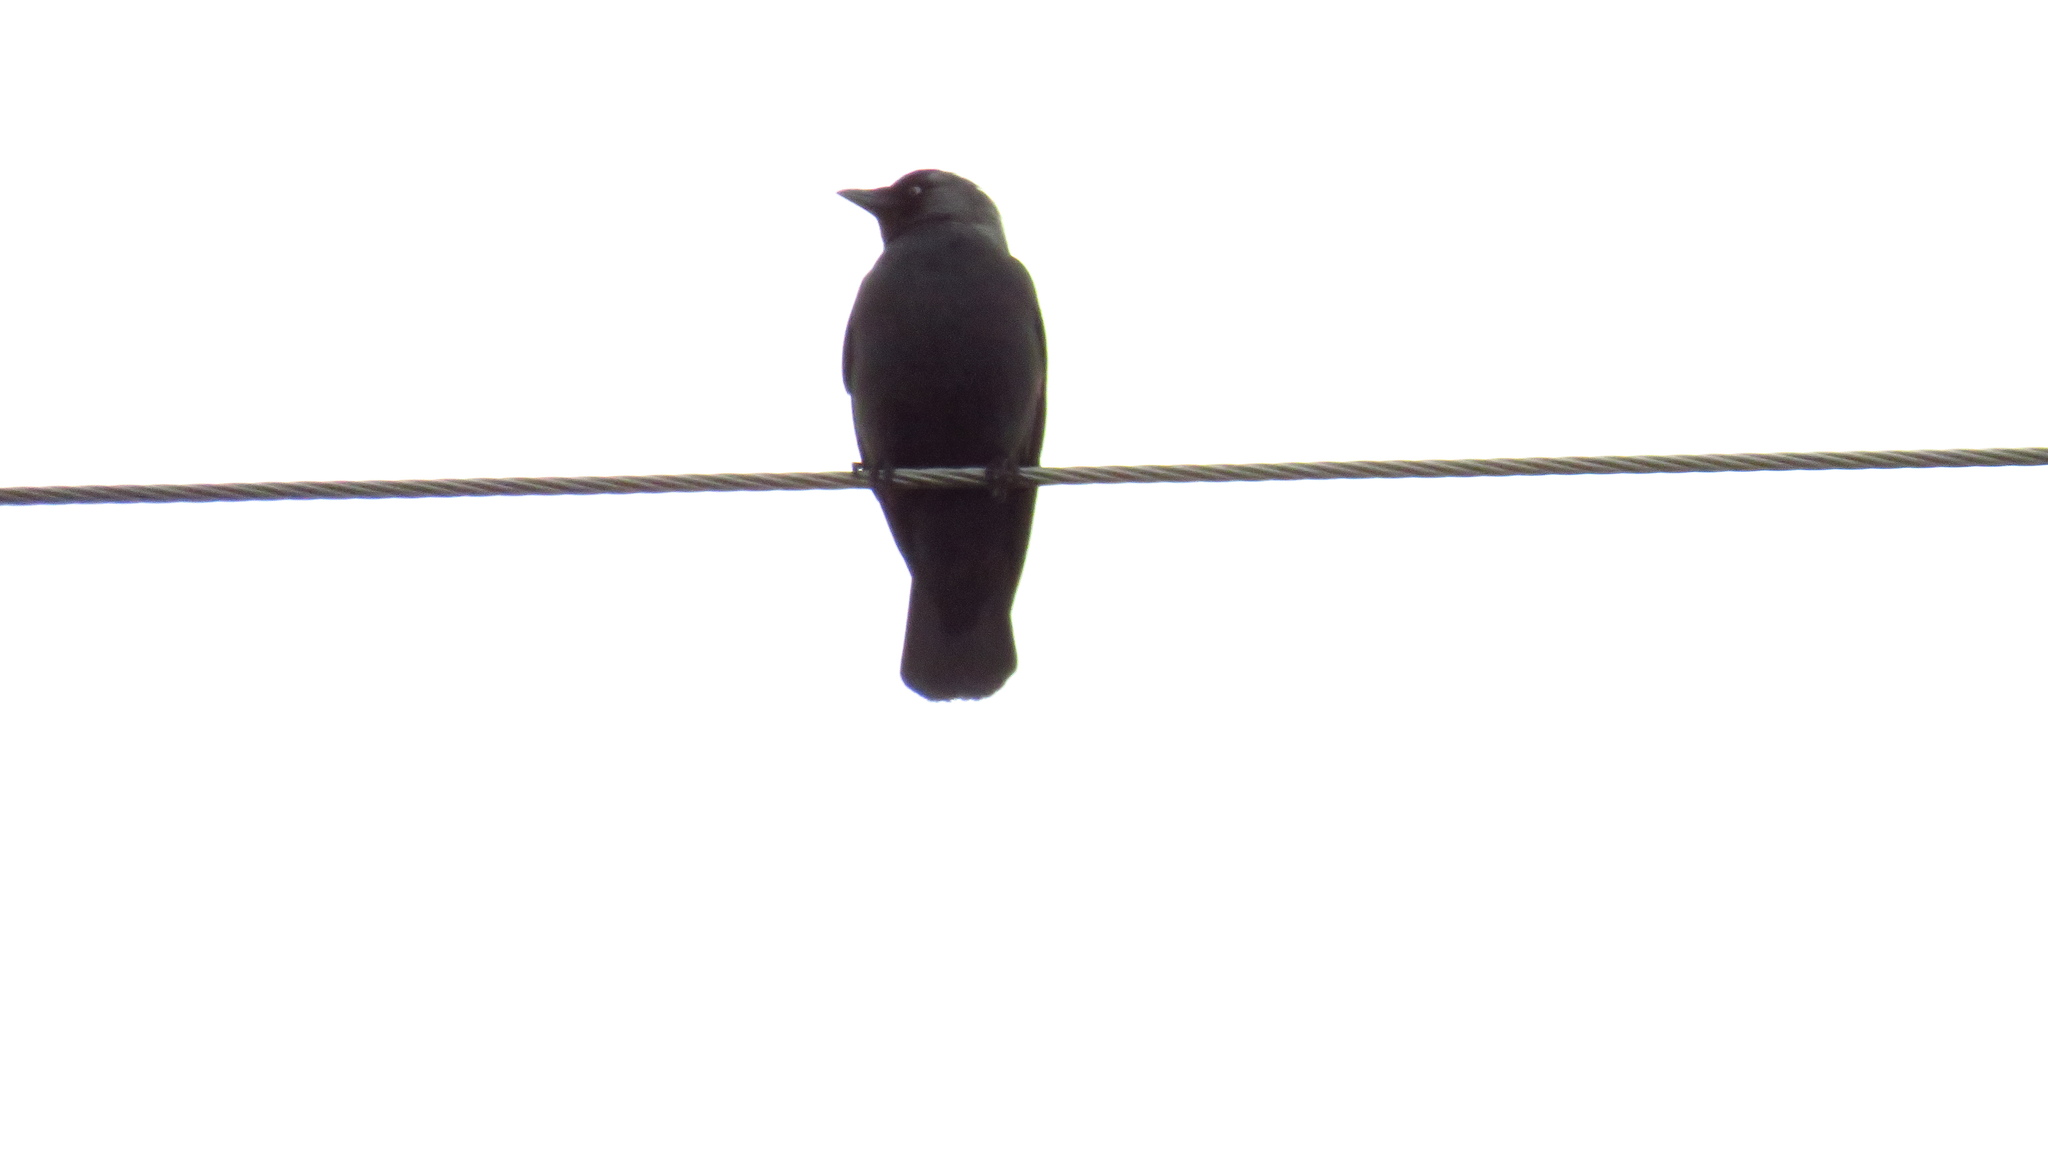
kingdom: Animalia
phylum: Chordata
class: Aves
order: Passeriformes
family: Corvidae
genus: Coloeus
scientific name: Coloeus monedula
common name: Western jackdaw
